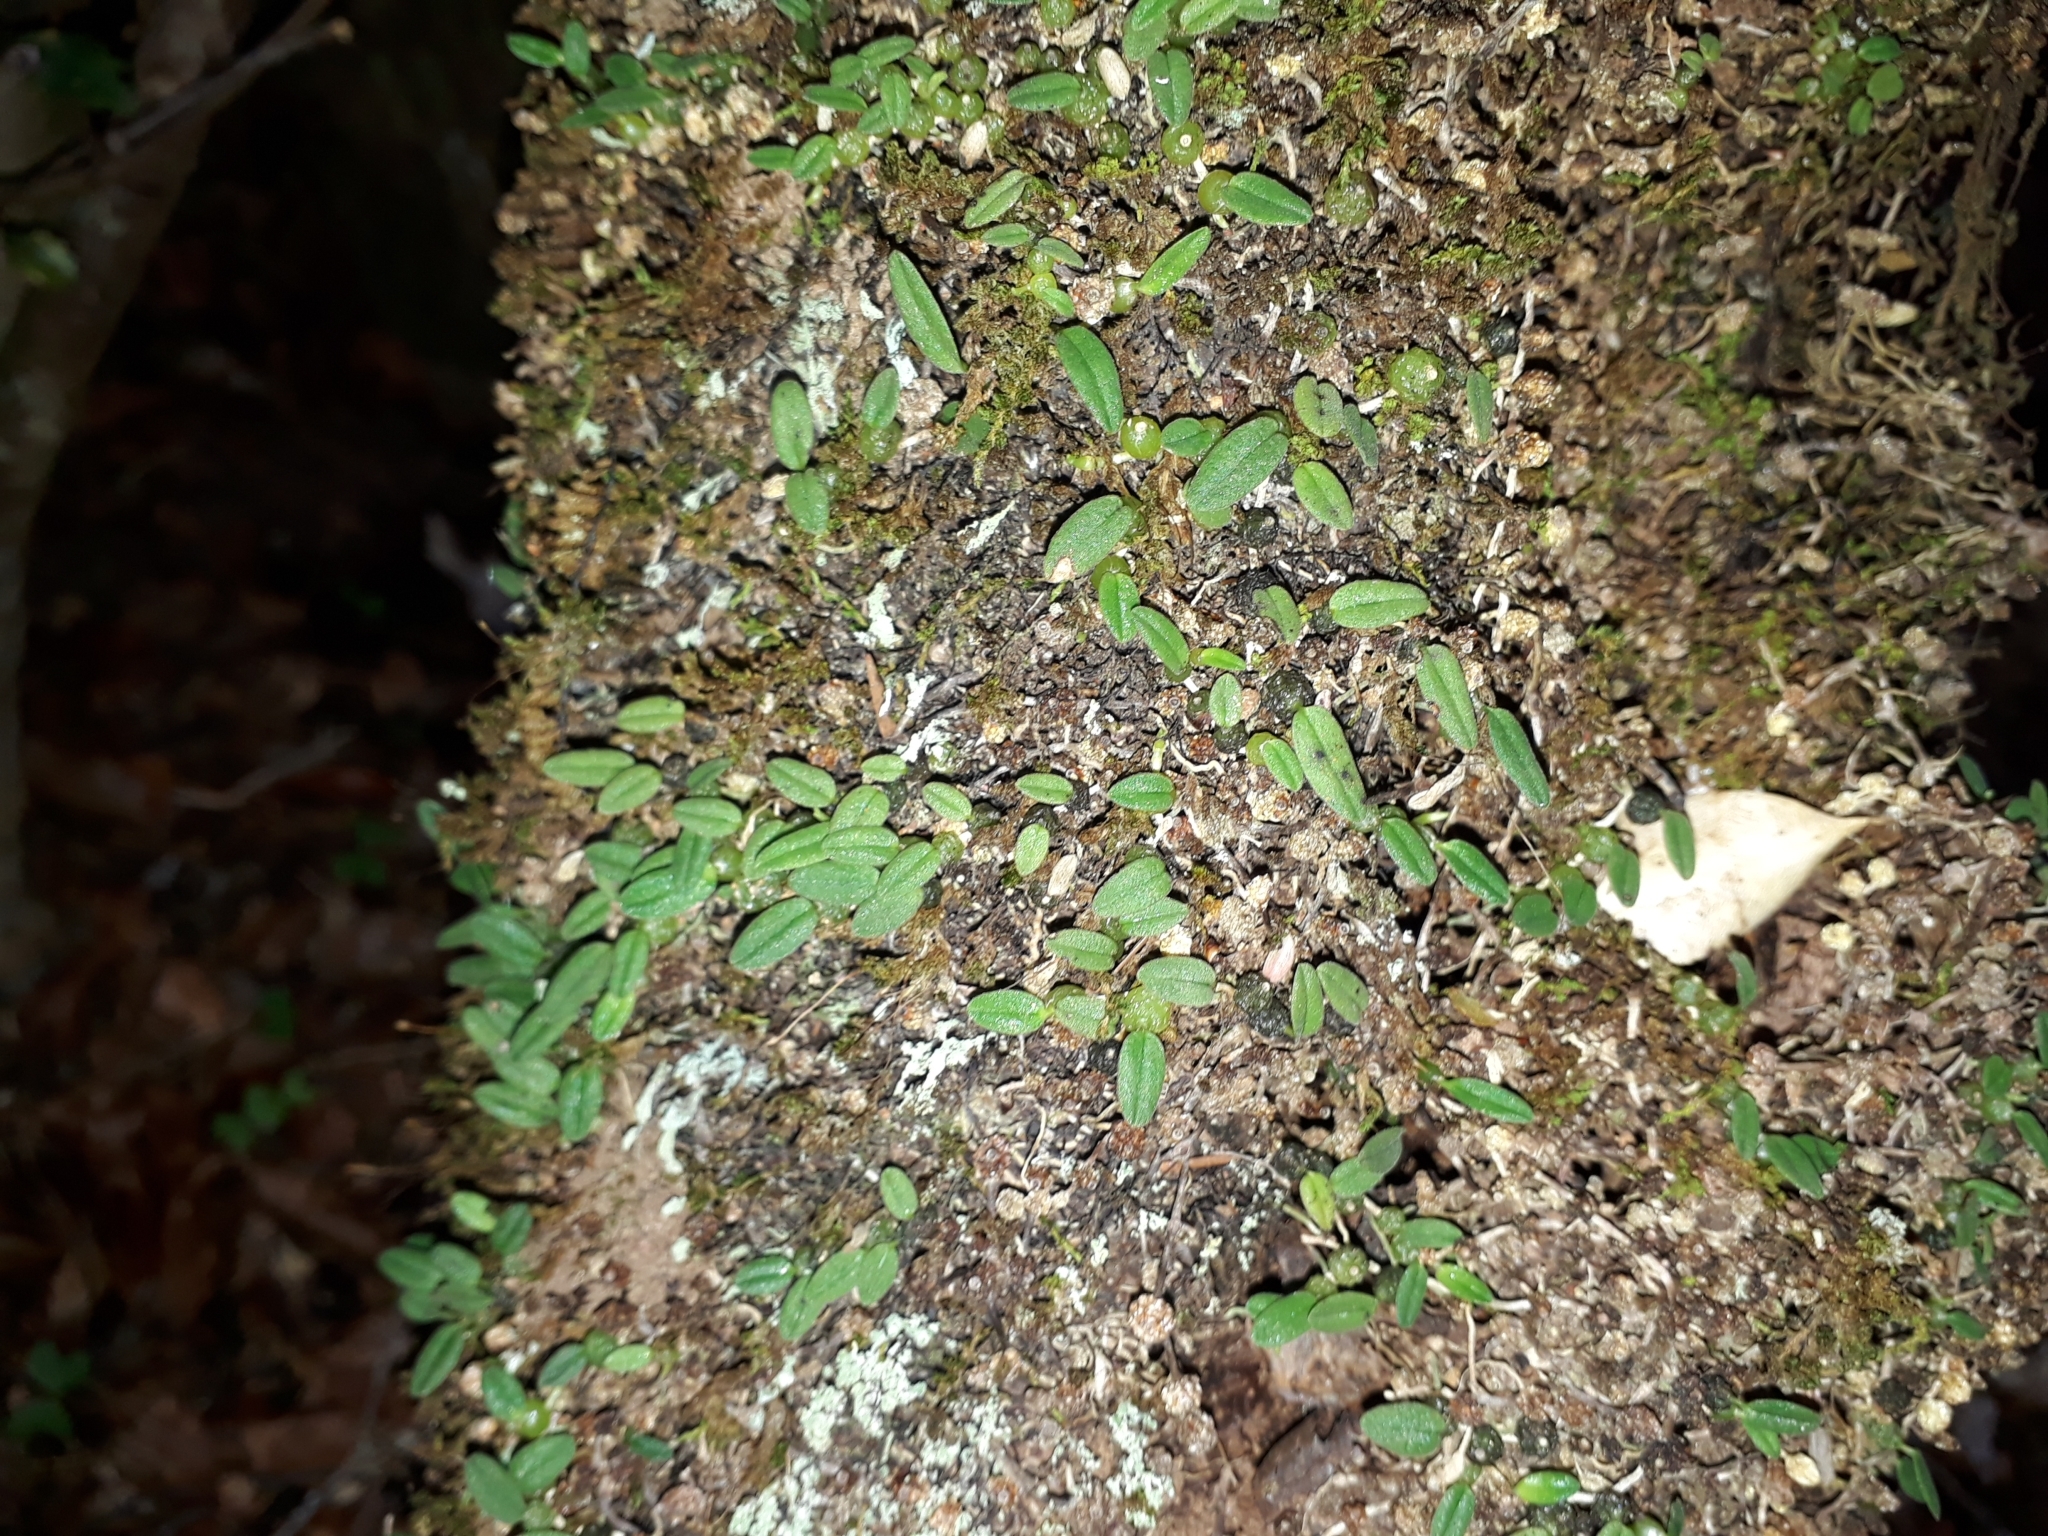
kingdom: Plantae
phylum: Tracheophyta
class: Liliopsida
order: Asparagales
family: Orchidaceae
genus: Bulbophyllum
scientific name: Bulbophyllum pygmaeum
